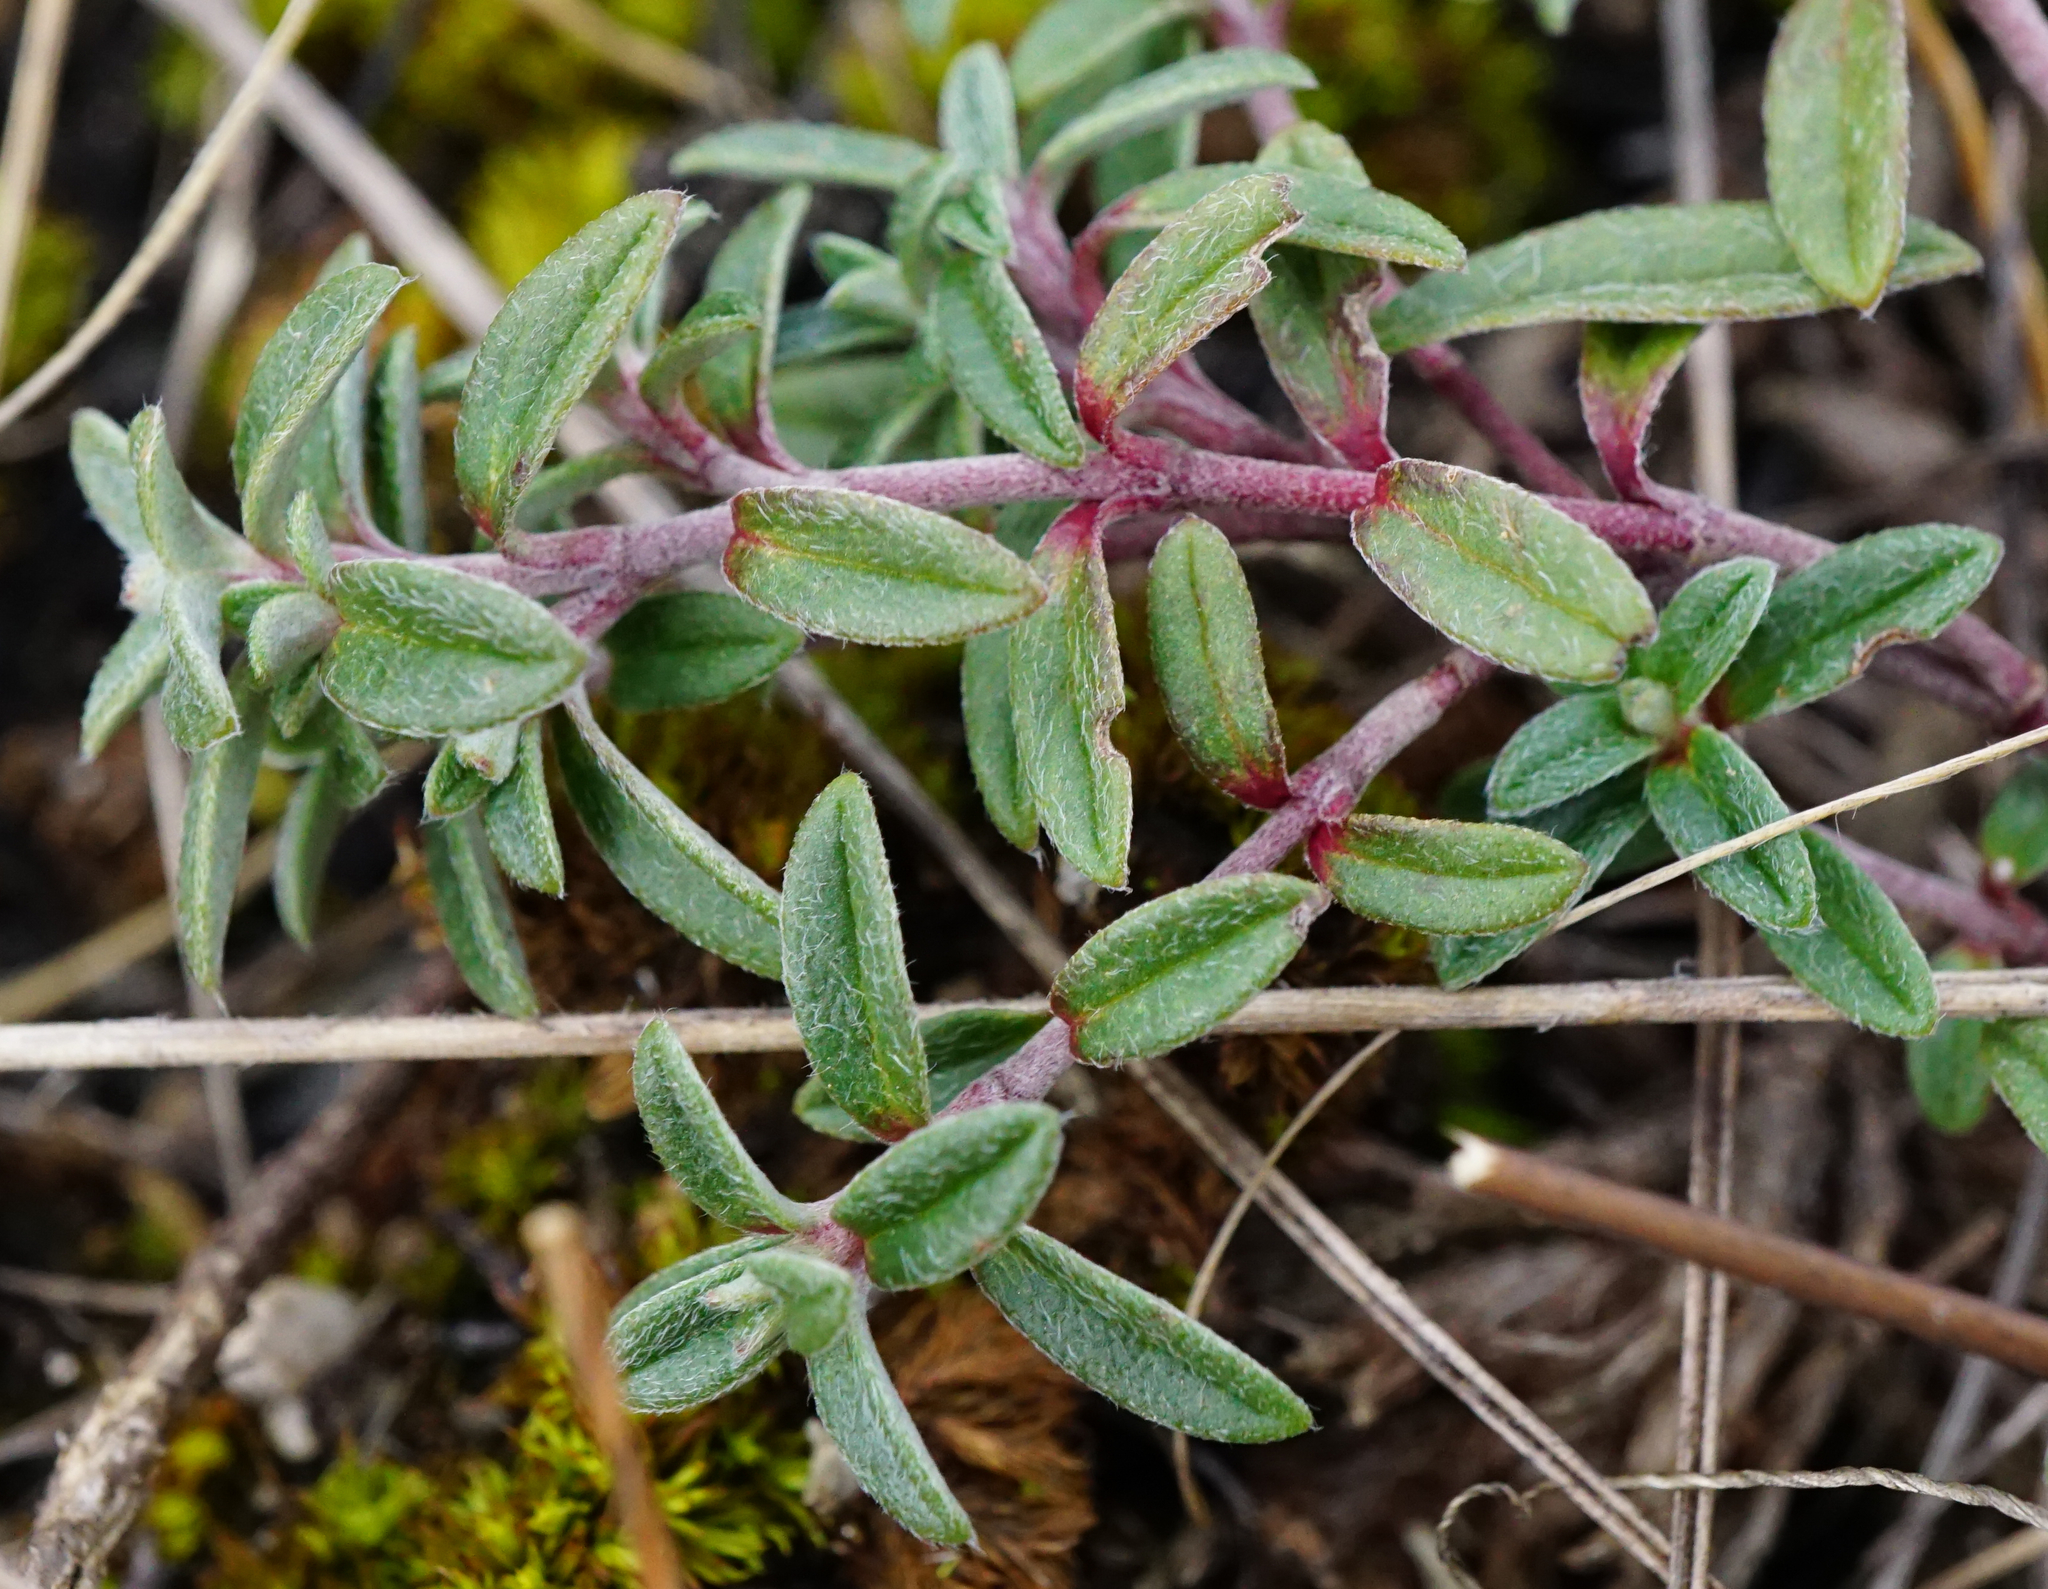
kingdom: Plantae
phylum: Tracheophyta
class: Magnoliopsida
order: Malvales
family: Cistaceae
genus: Helianthemum
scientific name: Helianthemum canum
